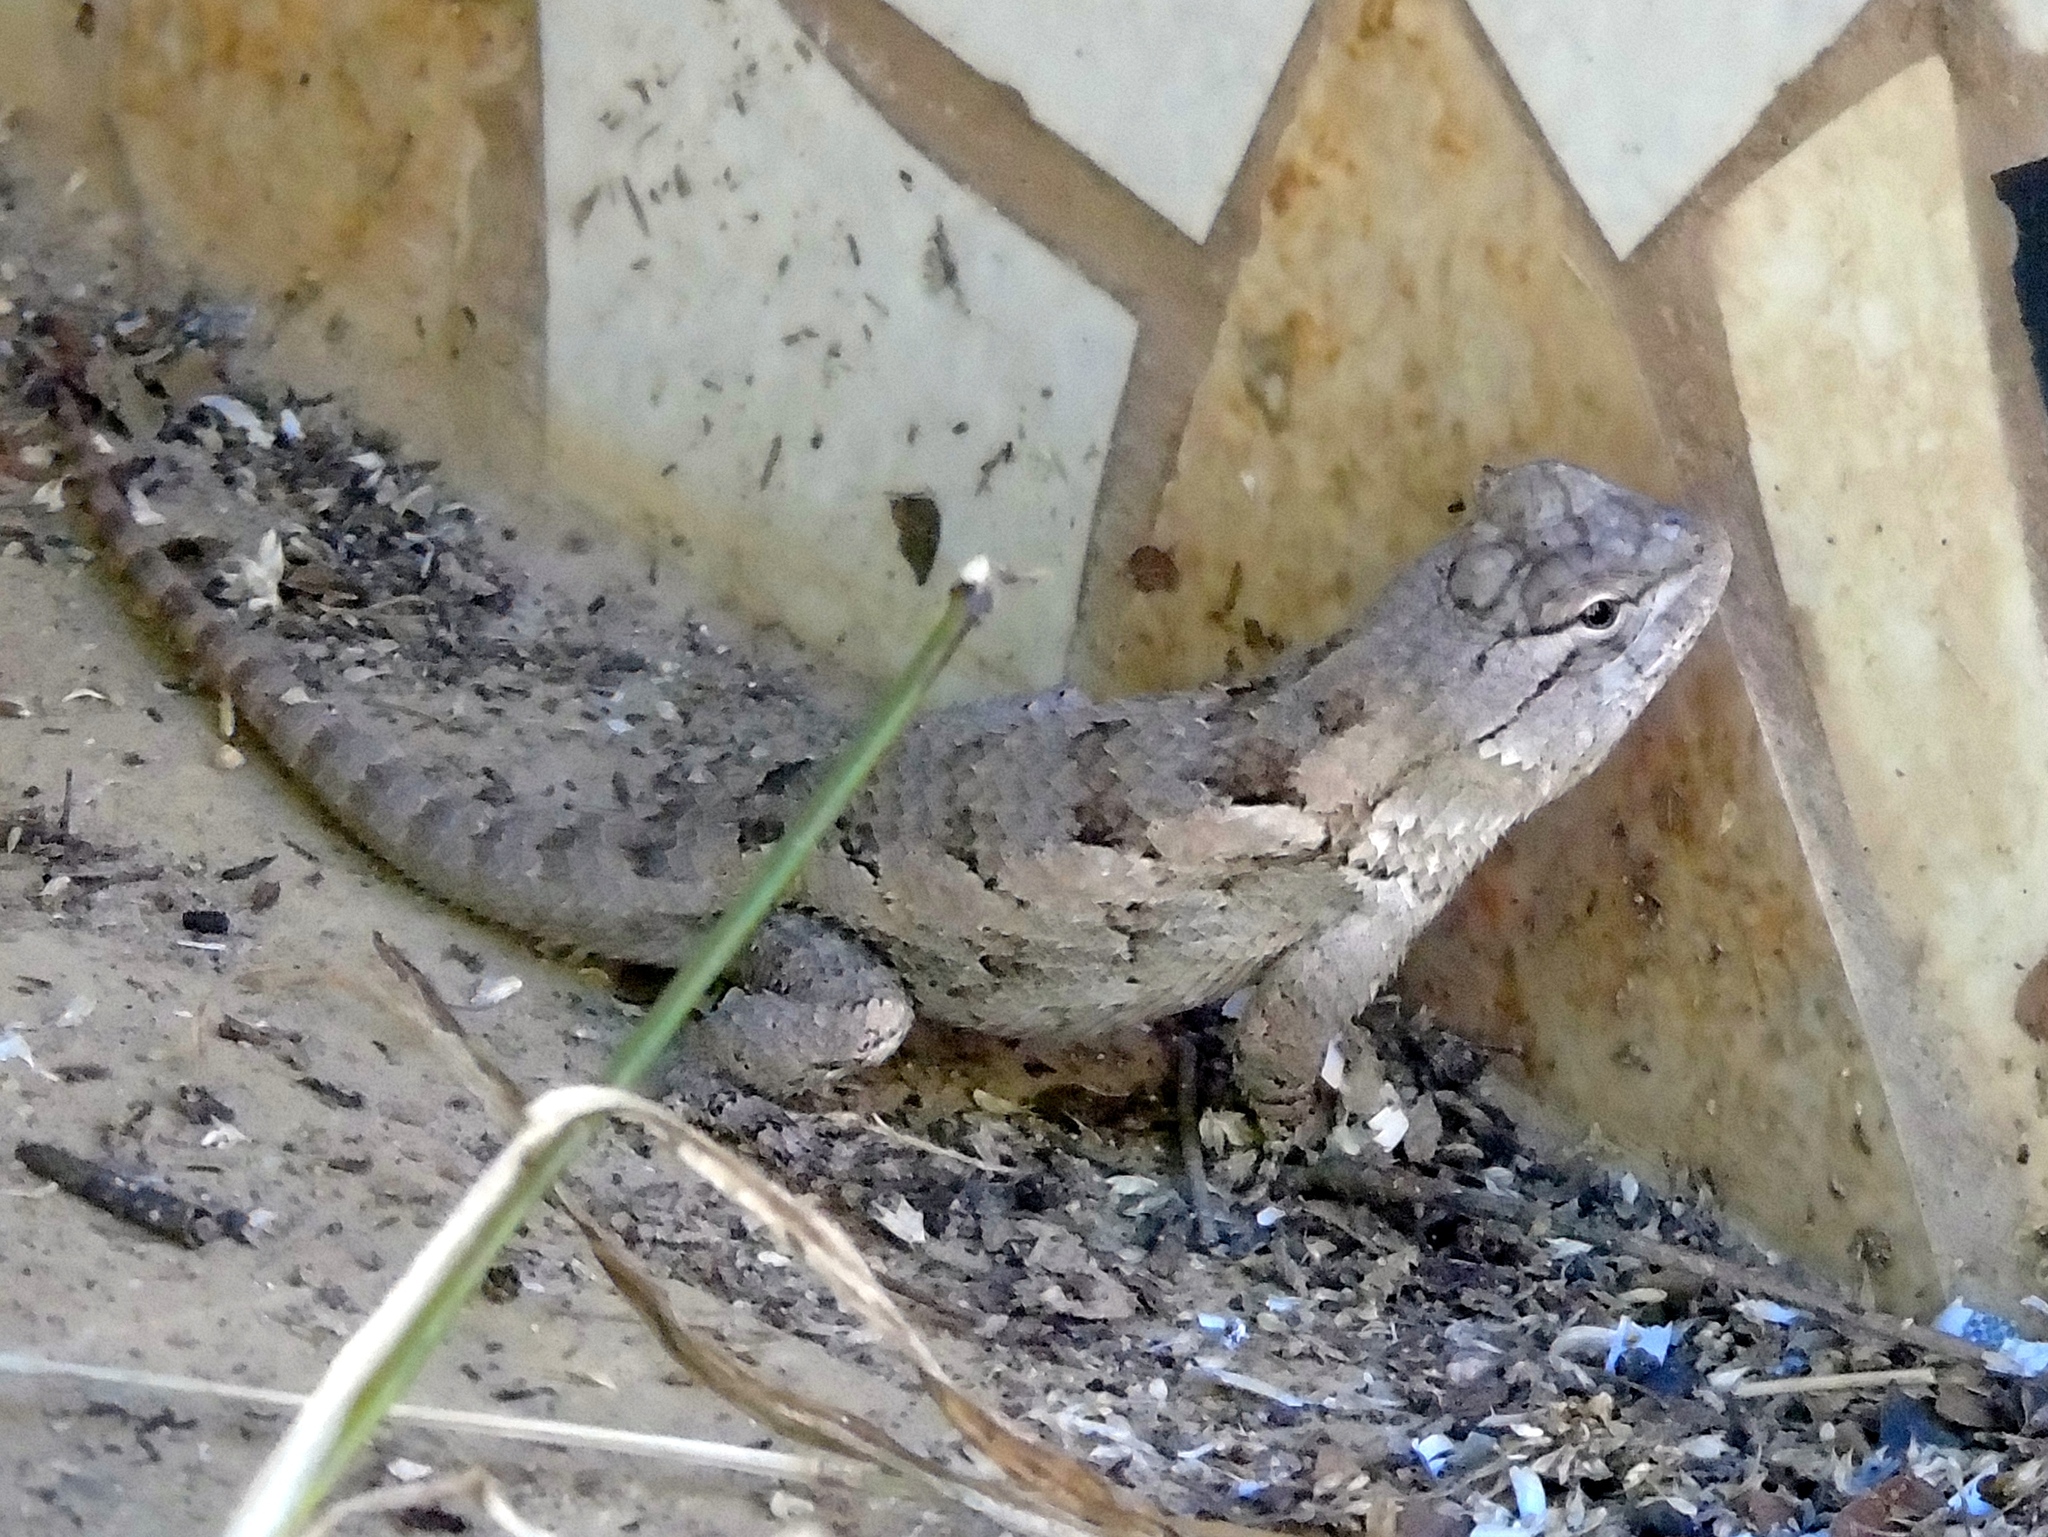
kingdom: Animalia
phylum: Chordata
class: Squamata
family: Phrynosomatidae
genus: Sceloporus
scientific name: Sceloporus clarkii
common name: Clark's spiny lizard
